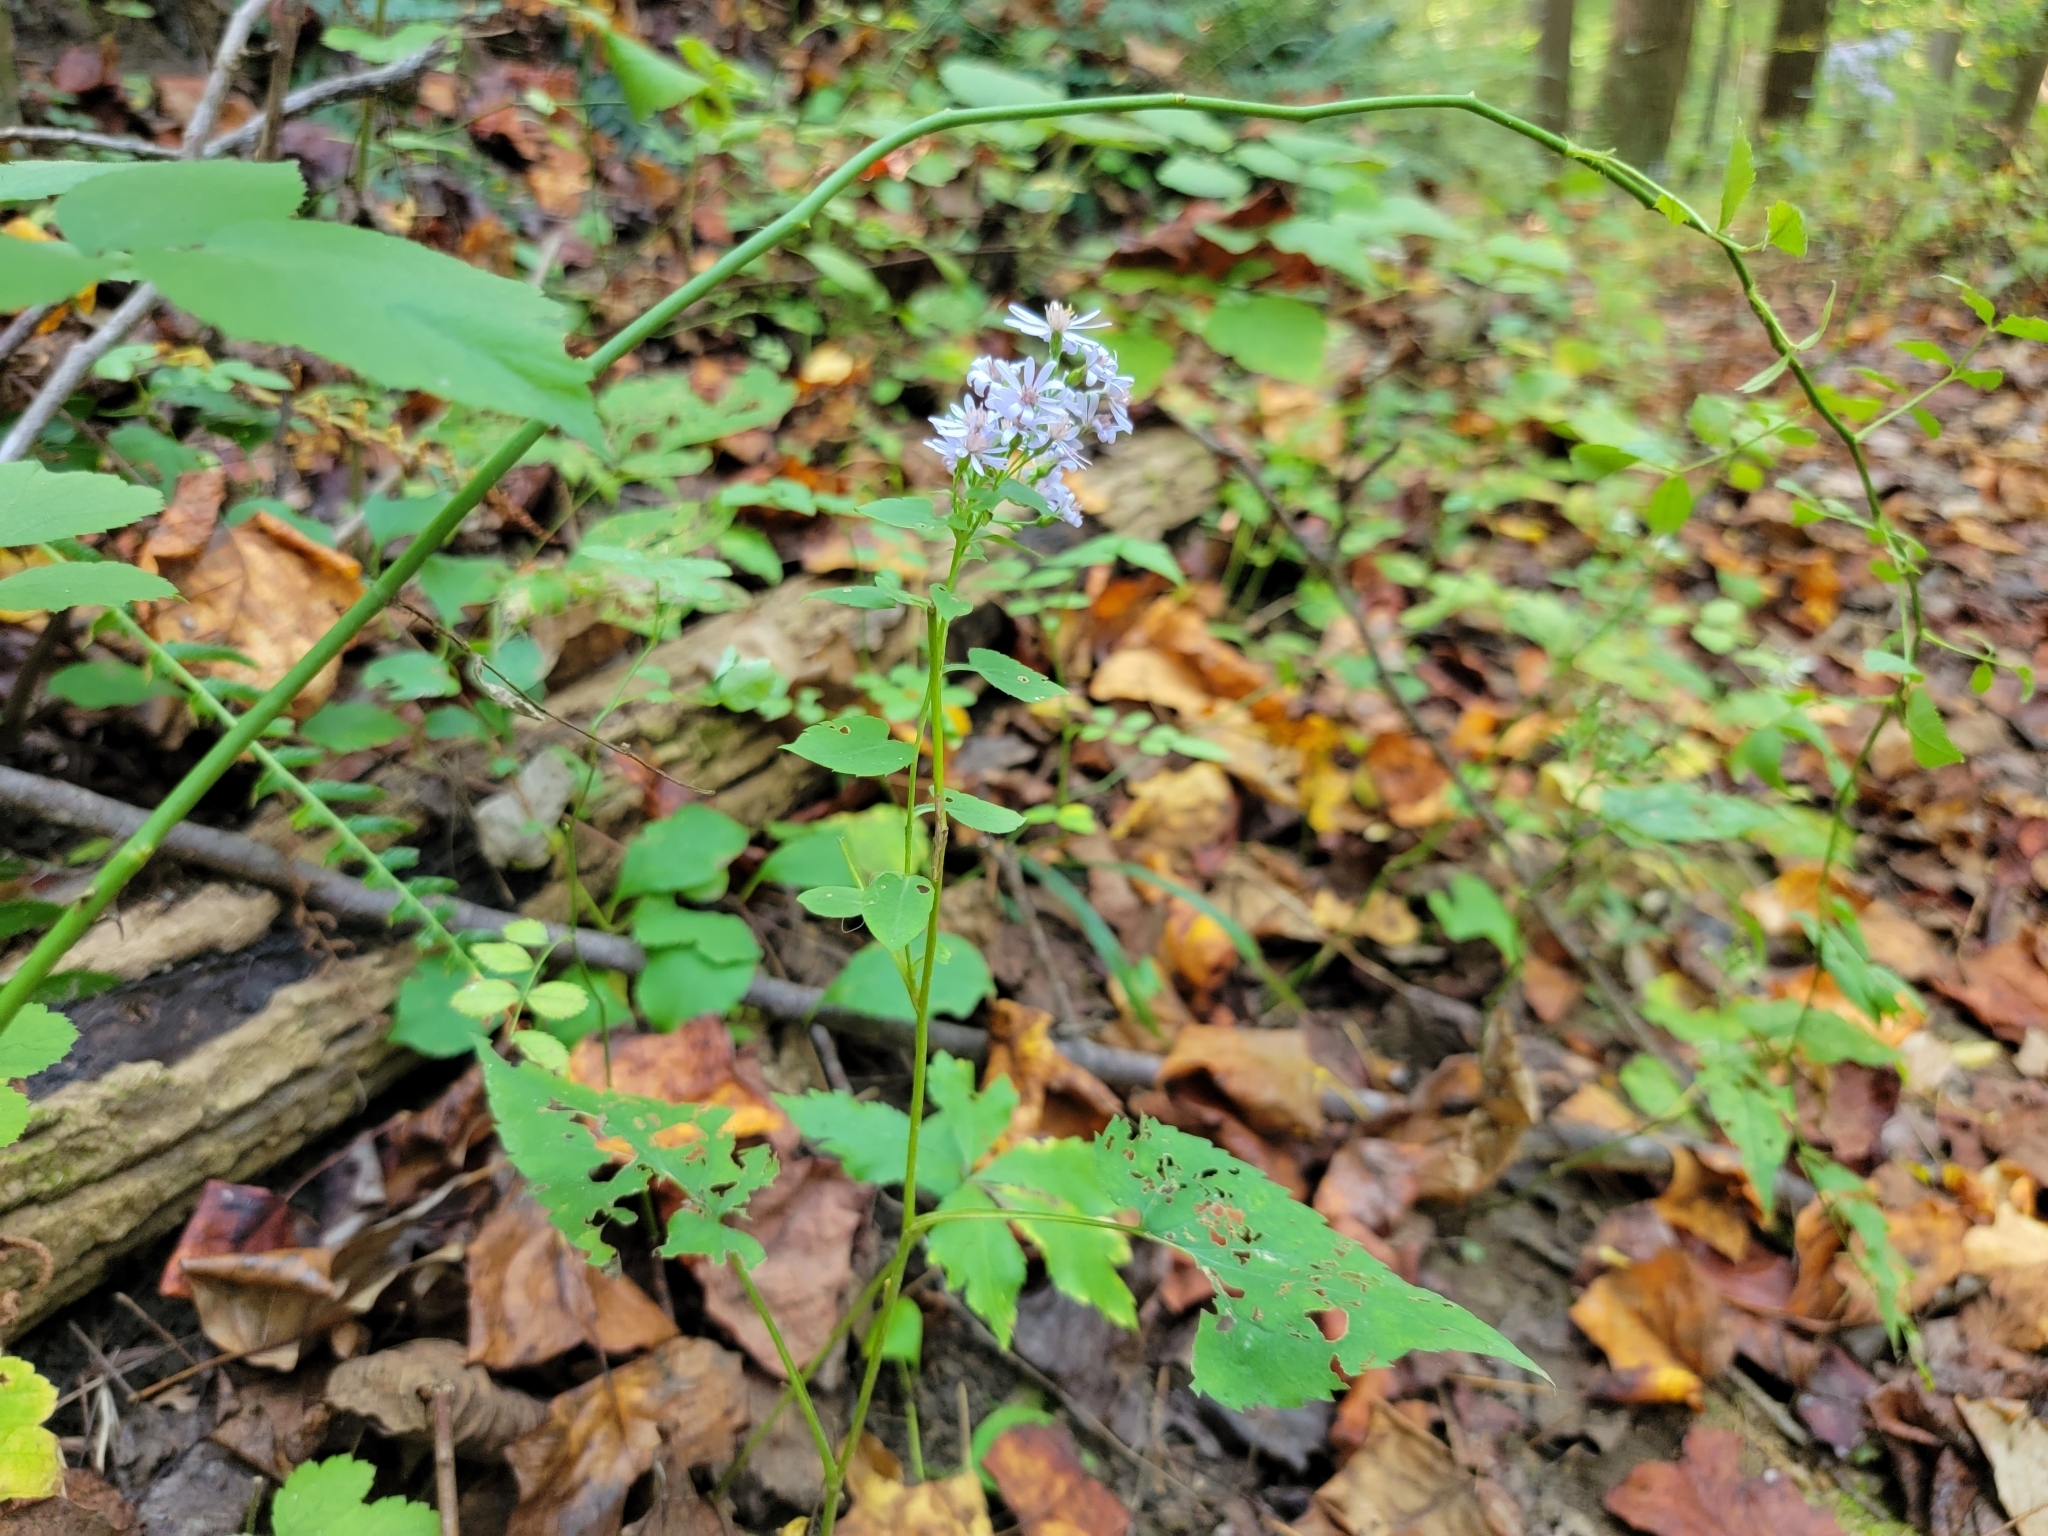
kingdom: Plantae
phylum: Tracheophyta
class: Magnoliopsida
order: Asterales
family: Asteraceae
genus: Symphyotrichum
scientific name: Symphyotrichum cordifolium
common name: Beeweed
